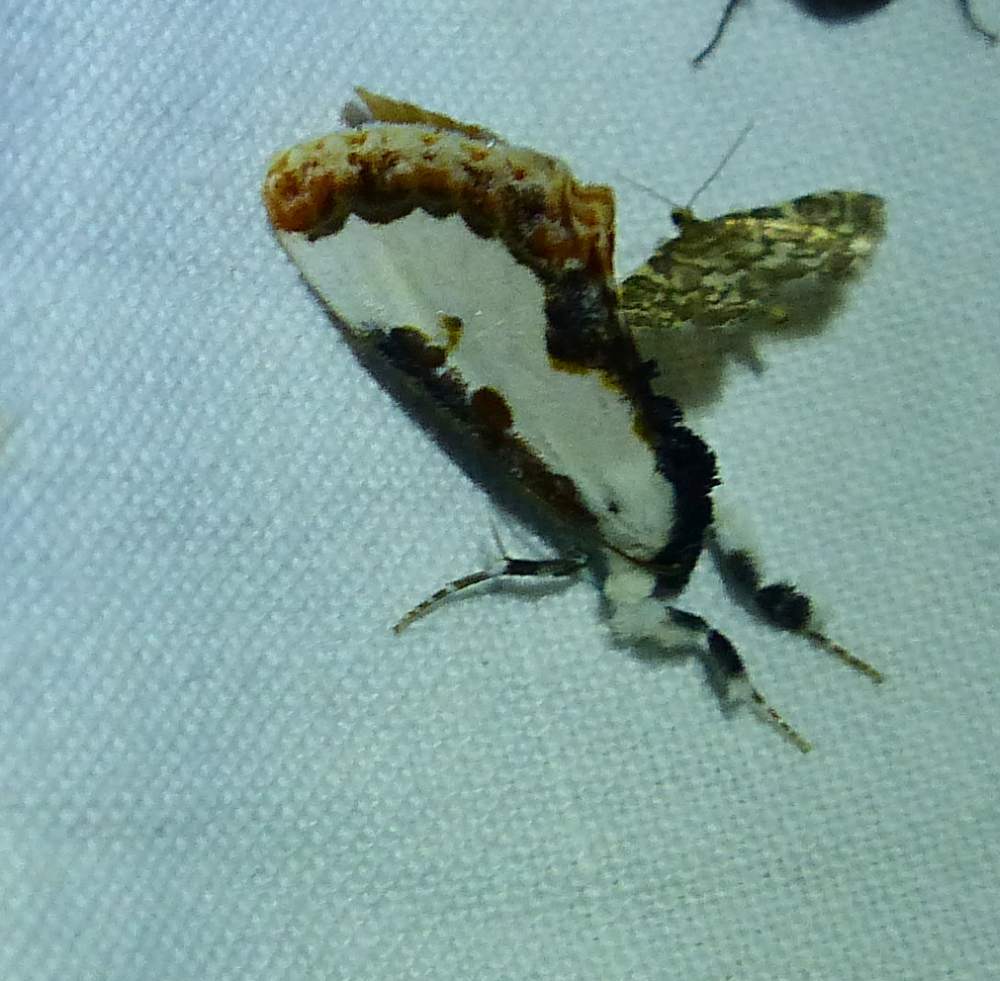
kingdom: Animalia
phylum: Arthropoda
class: Insecta
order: Lepidoptera
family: Noctuidae
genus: Eudryas
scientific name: Eudryas unio
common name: Pearly wood-nymph
